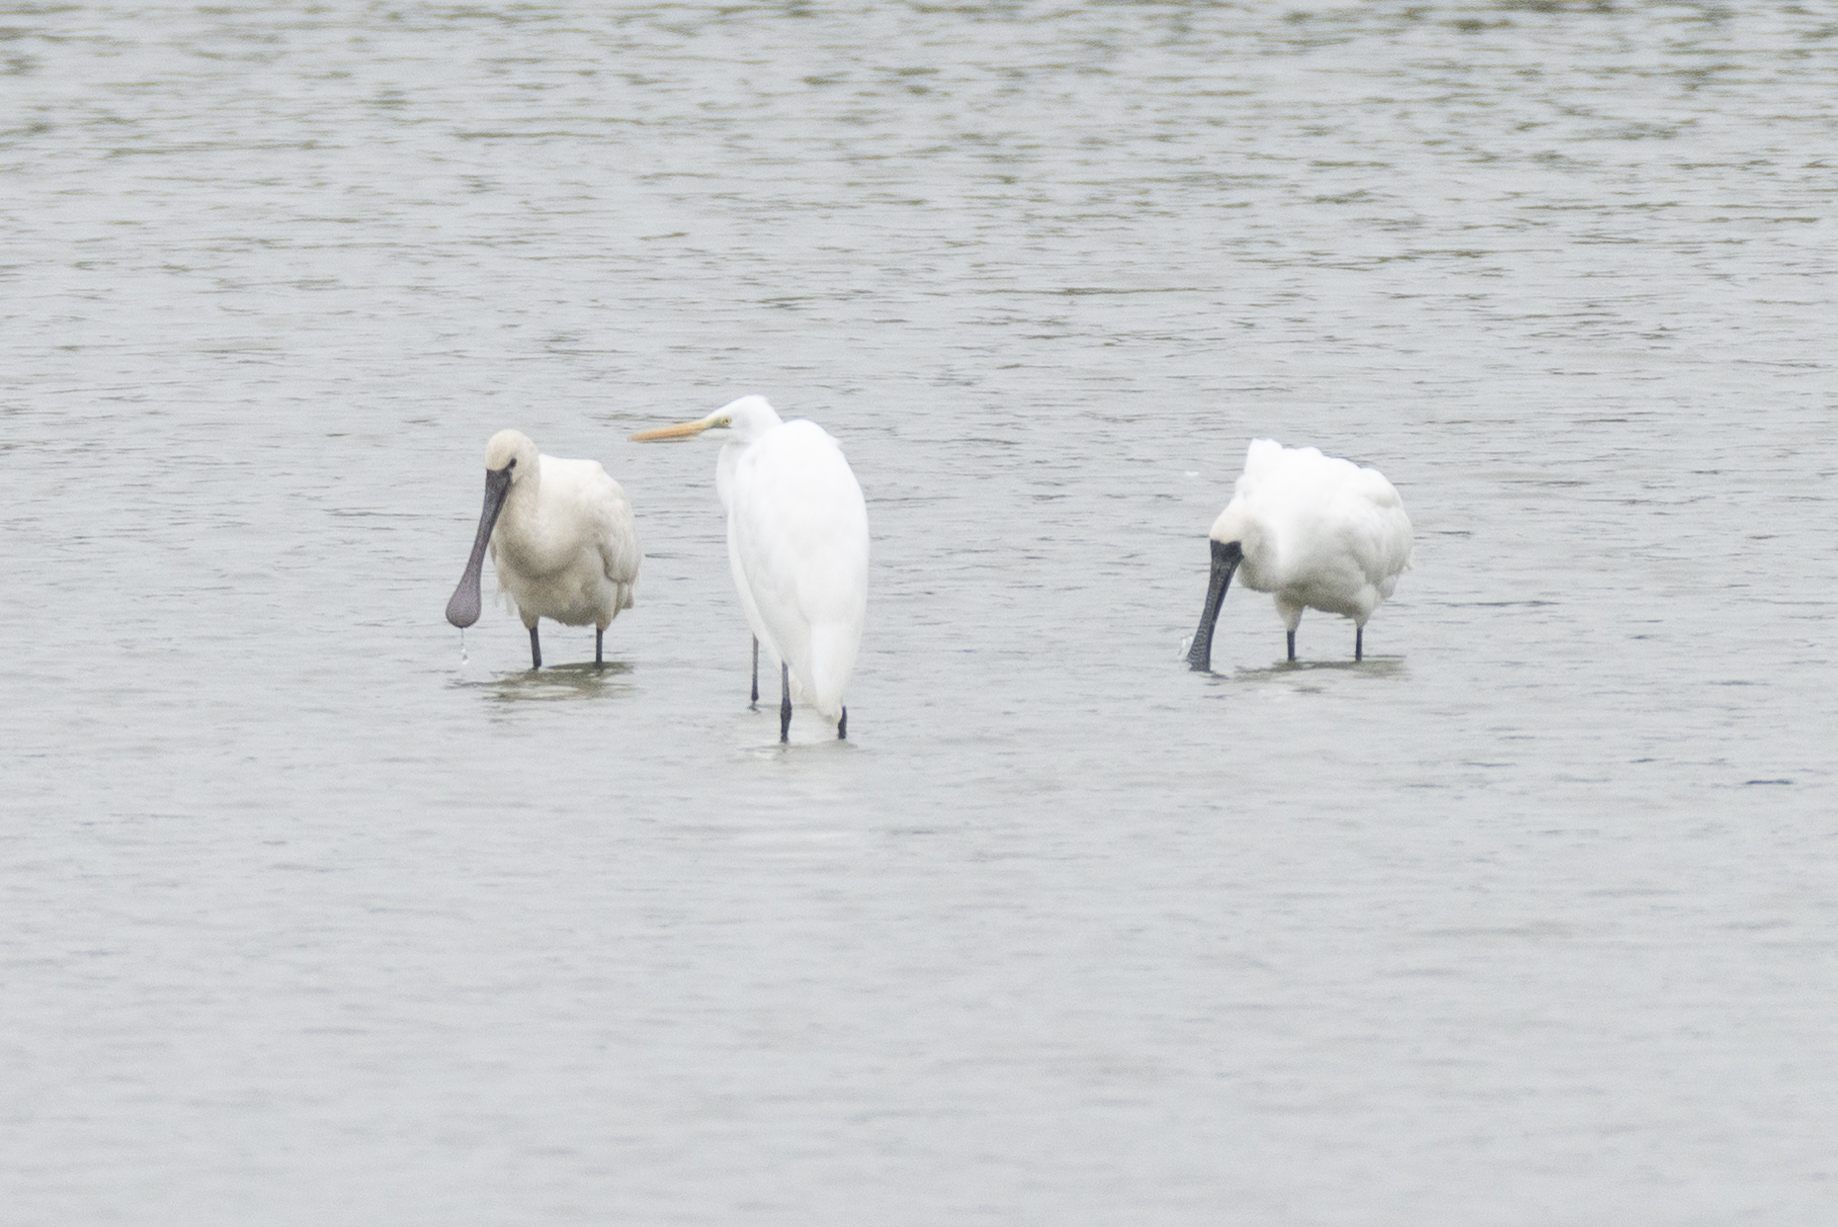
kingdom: Animalia
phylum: Chordata
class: Aves
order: Pelecaniformes
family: Threskiornithidae
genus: Platalea
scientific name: Platalea minor
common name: Black-faced spoonbill
